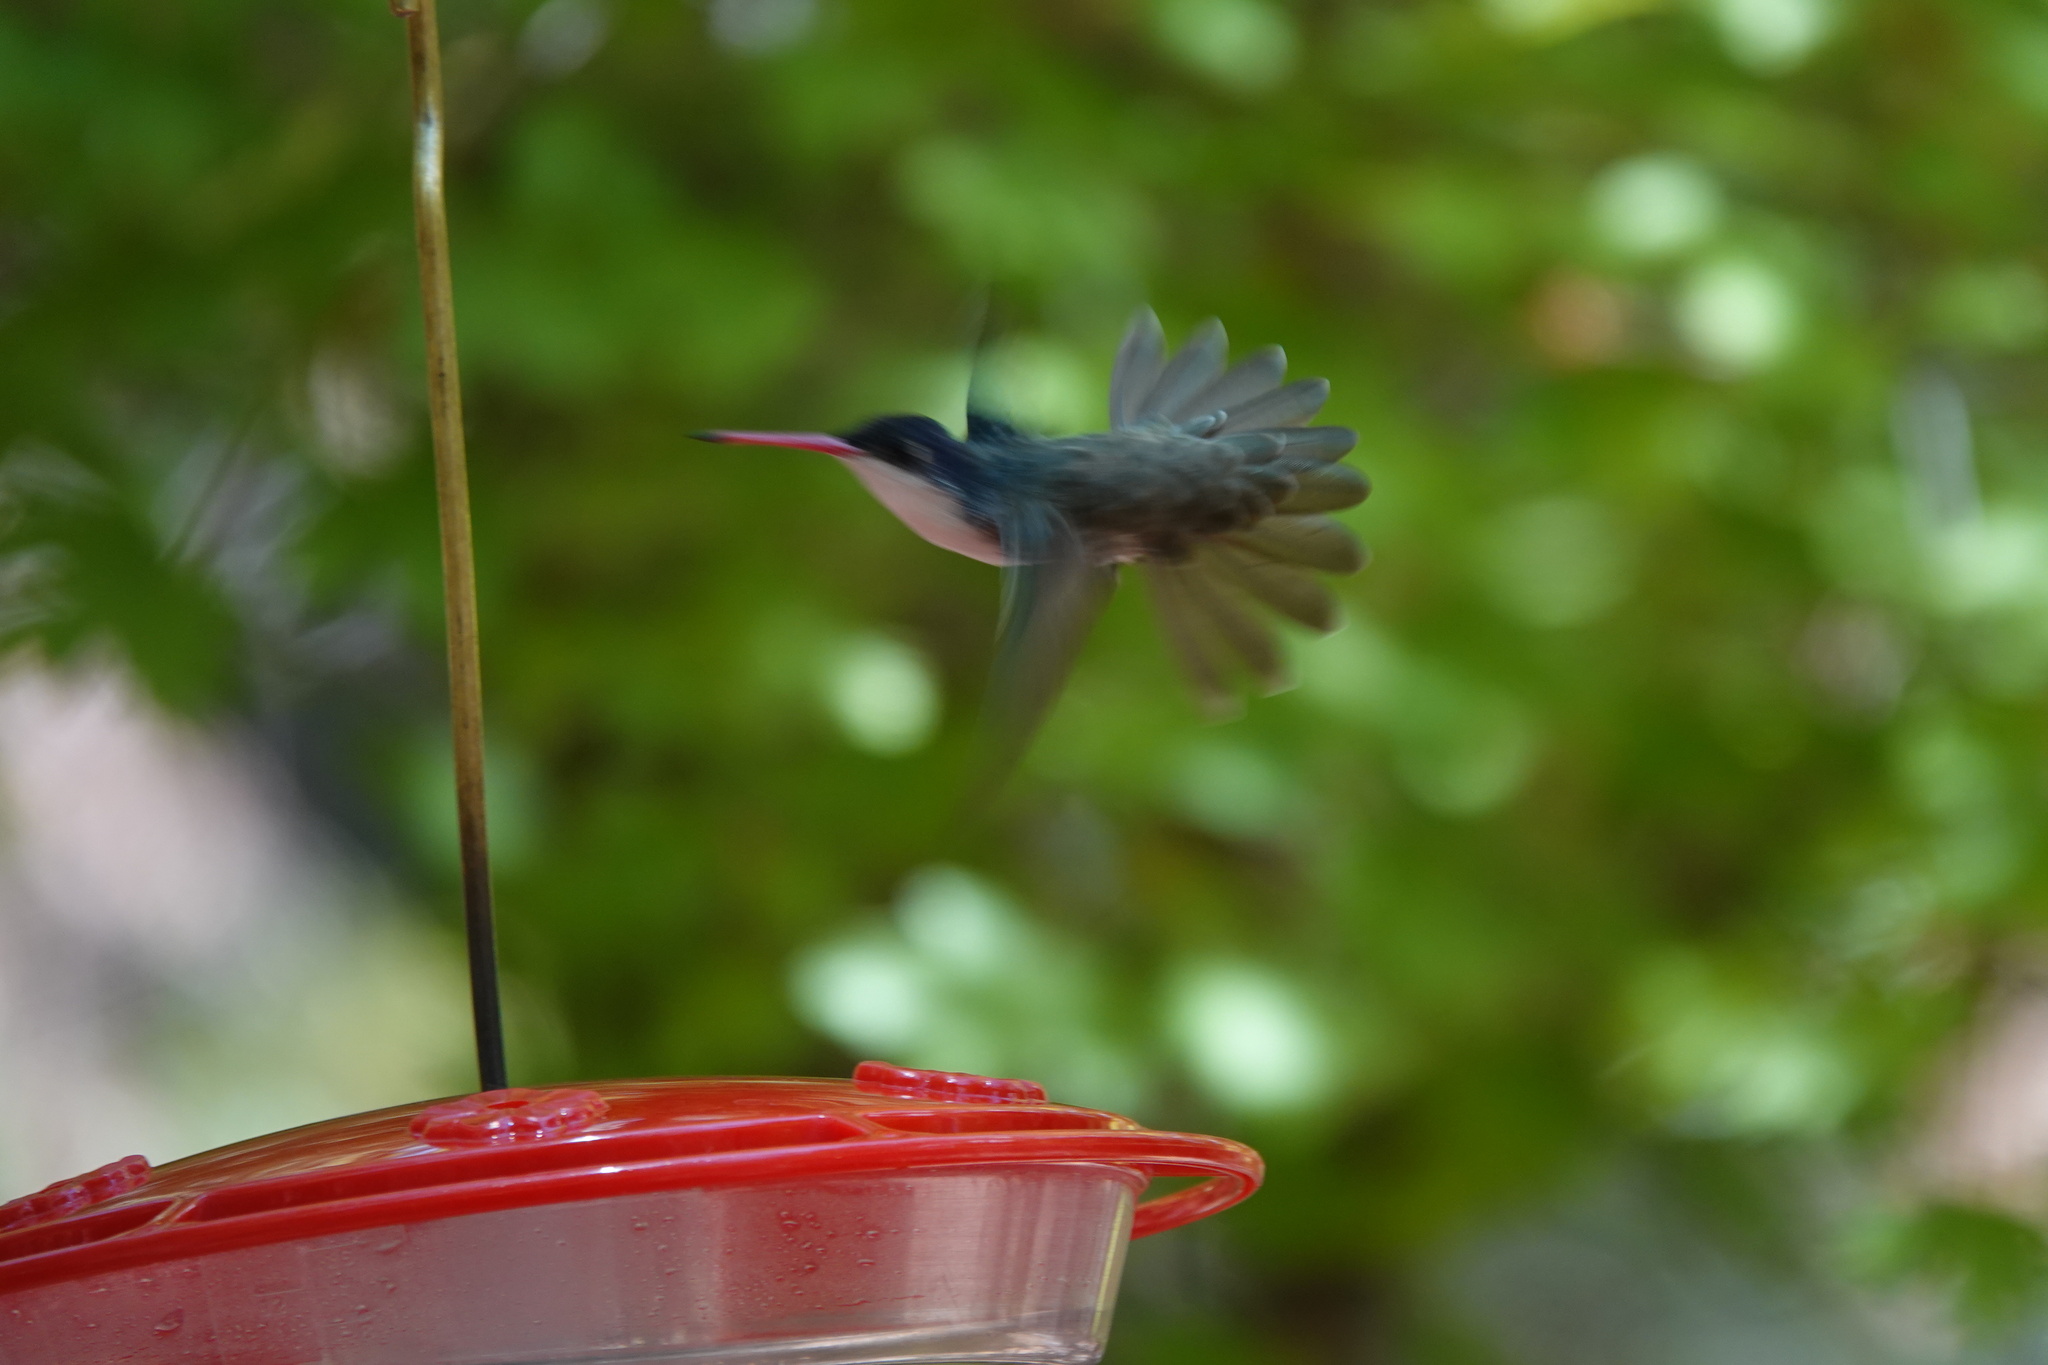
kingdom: Animalia
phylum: Chordata
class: Aves
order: Apodiformes
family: Trochilidae
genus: Leucolia
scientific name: Leucolia violiceps
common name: Violet-crowned hummingbird
